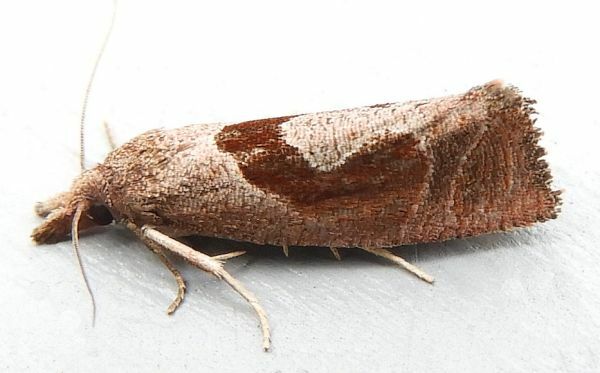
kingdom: Animalia
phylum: Arthropoda
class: Insecta
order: Lepidoptera
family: Tortricidae
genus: Pelochrista
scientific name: Pelochrista similiana
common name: Similar eucosma
